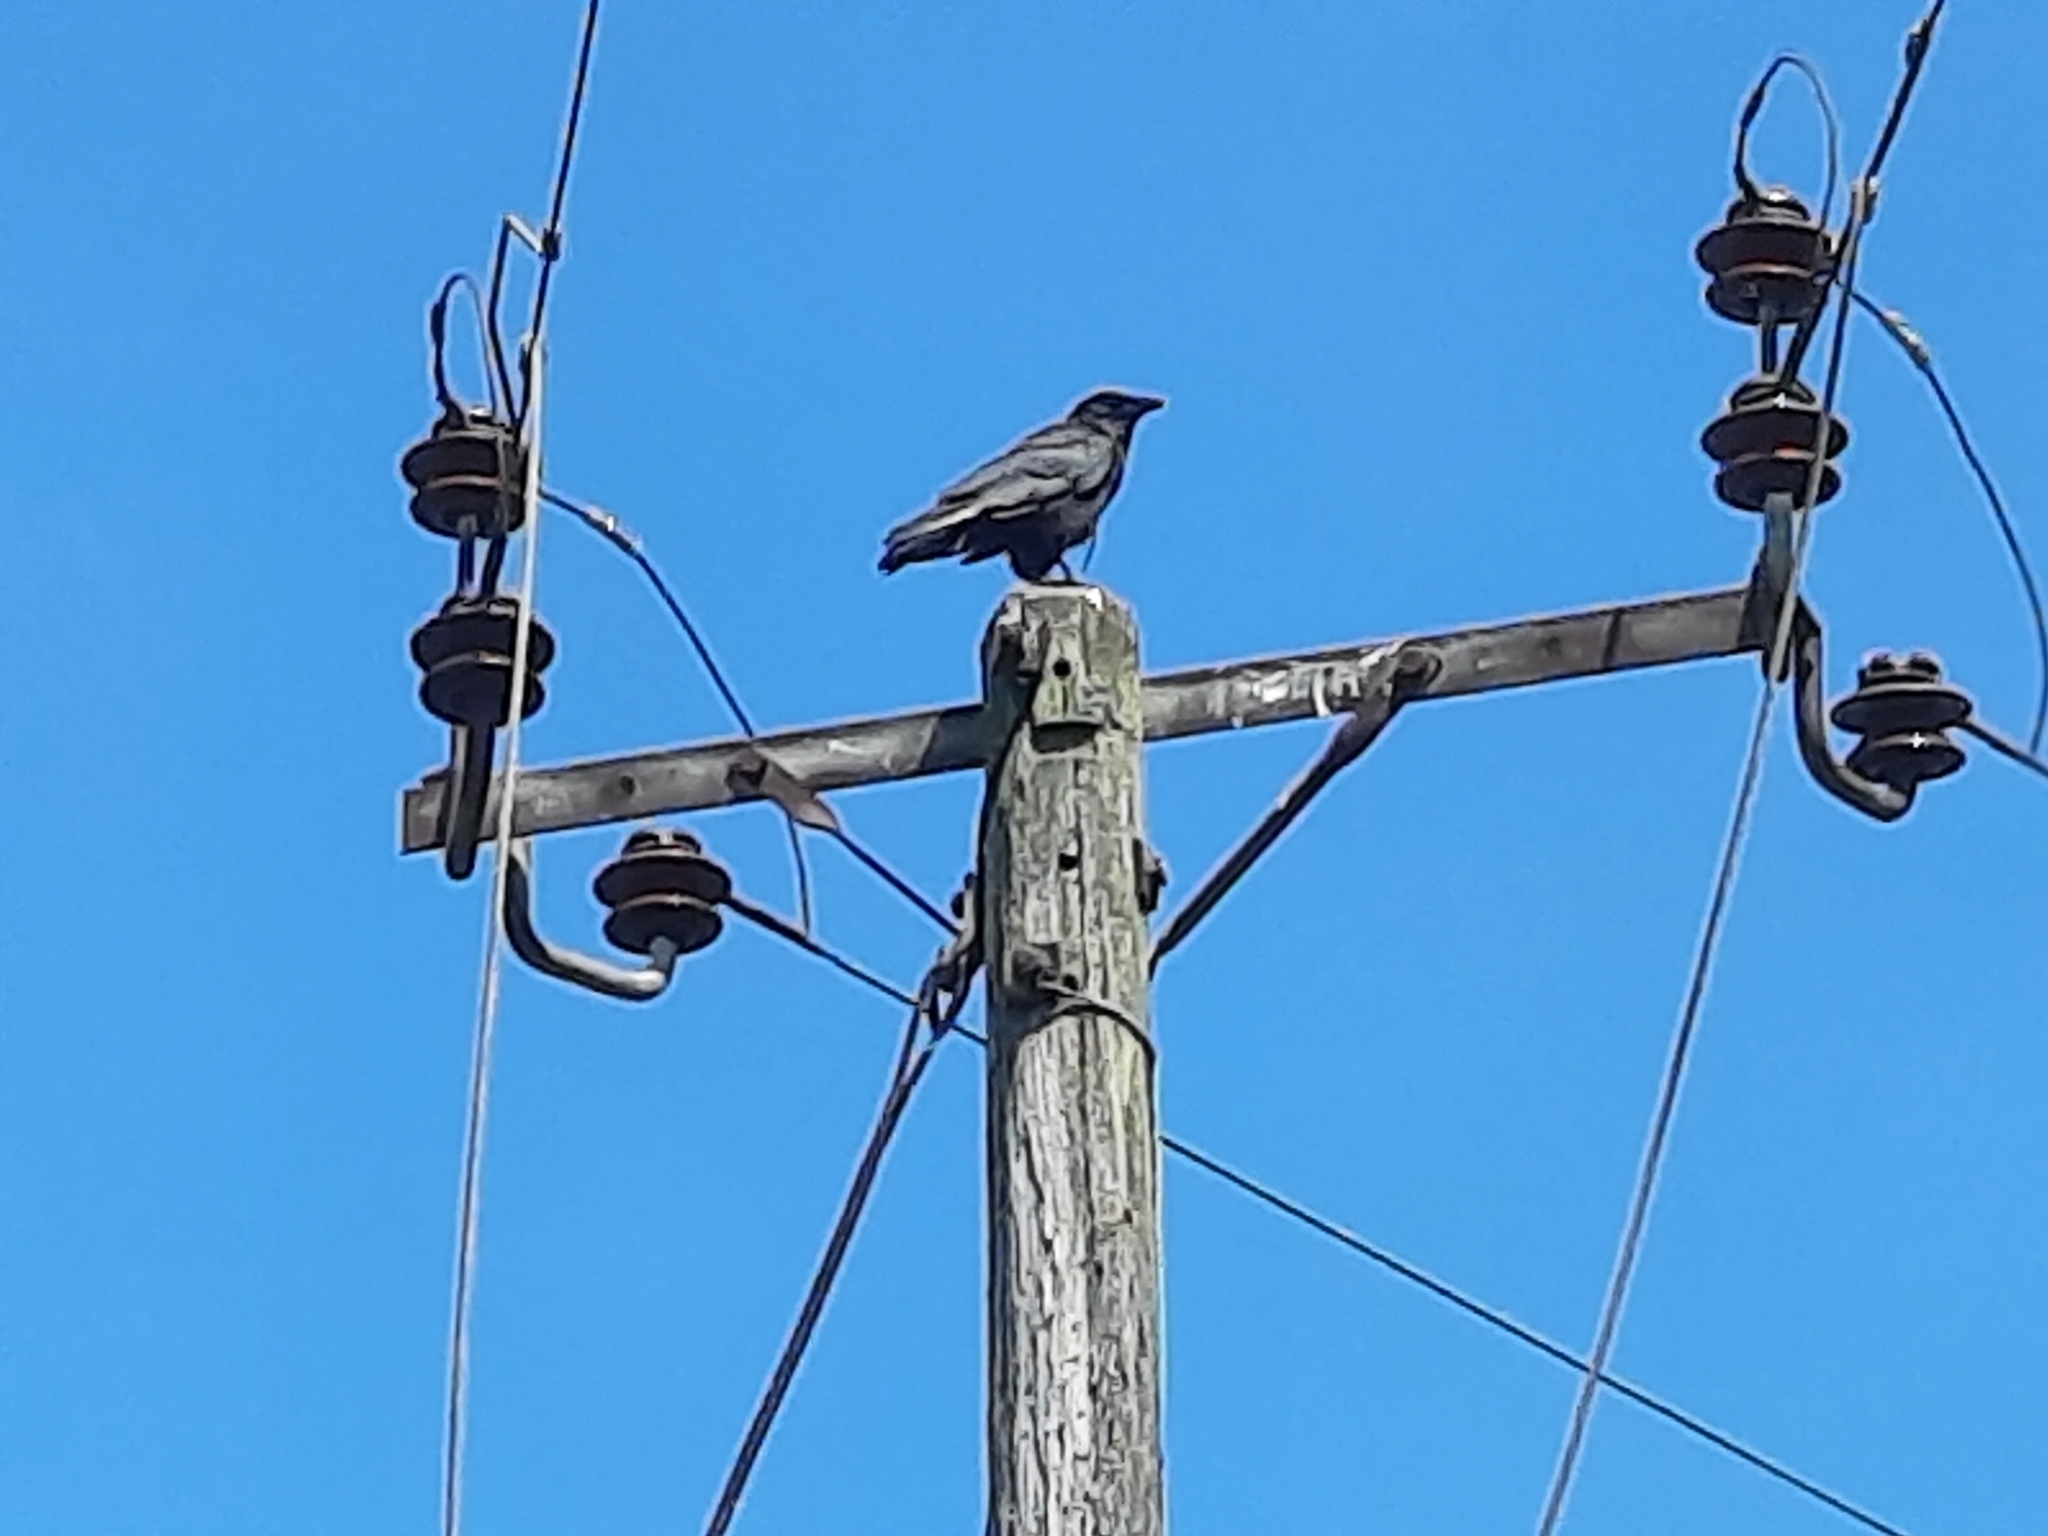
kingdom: Animalia
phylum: Chordata
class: Aves
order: Passeriformes
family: Corvidae
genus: Corvus
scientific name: Corvus corax
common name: Common raven
